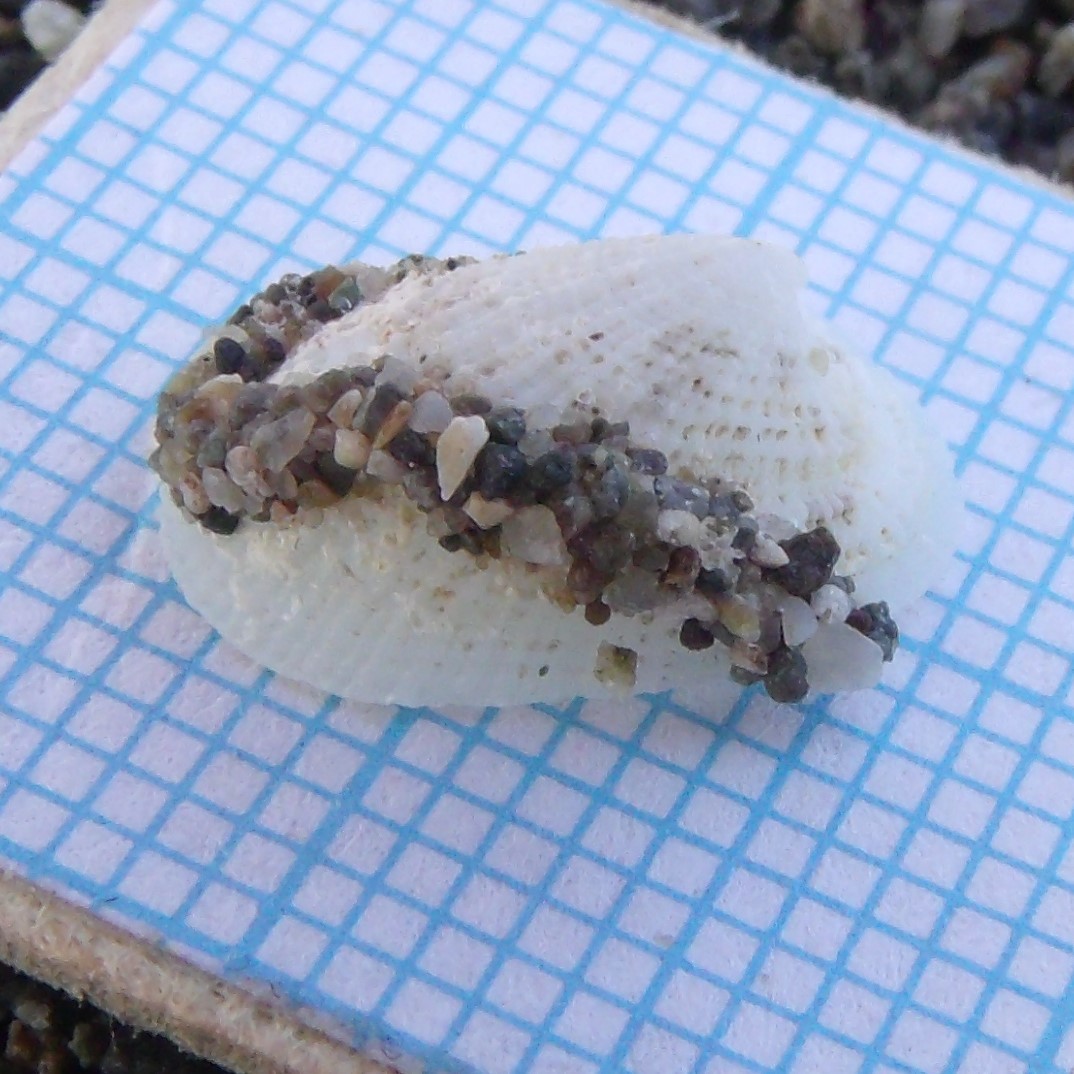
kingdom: Animalia
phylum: Mollusca
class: Gastropoda
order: Lepetellida
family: Fissurellidae
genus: Tugali
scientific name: Tugali suteri
